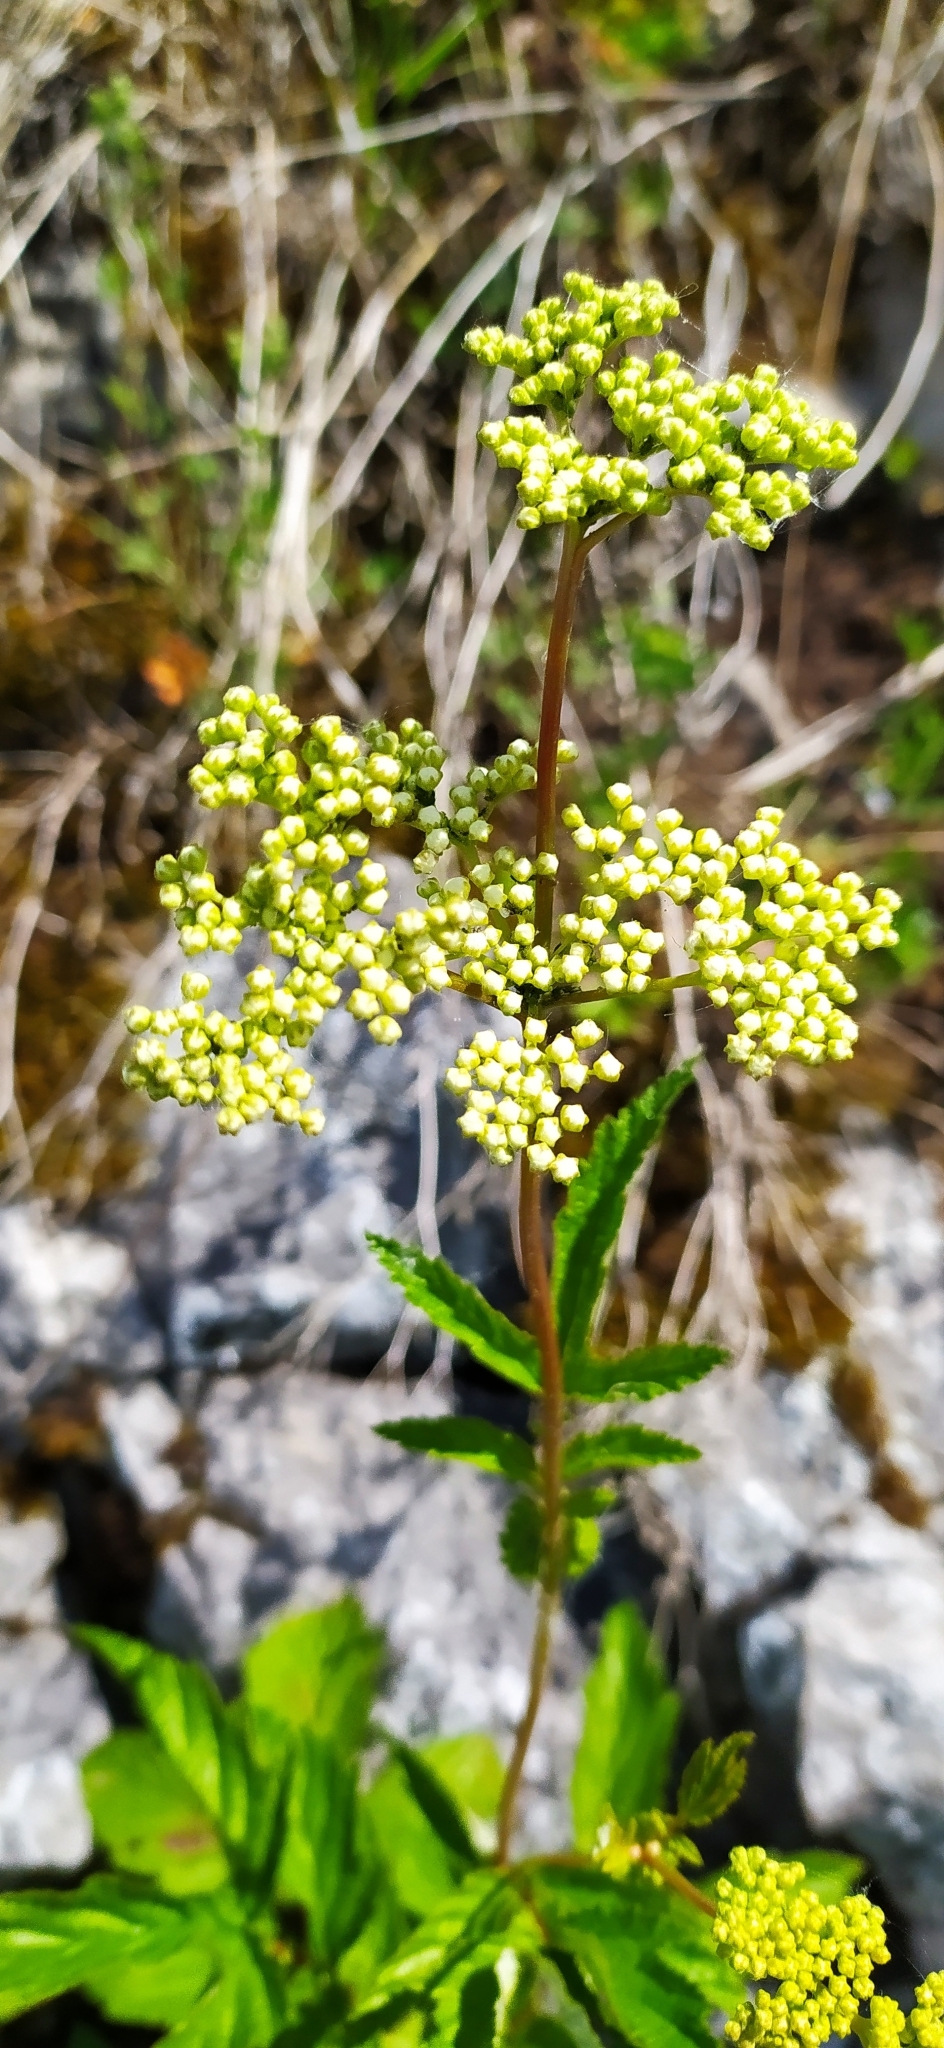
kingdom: Plantae
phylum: Tracheophyta
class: Magnoliopsida
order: Rosales
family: Rosaceae
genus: Filipendula
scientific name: Filipendula ulmaria
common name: Meadowsweet
